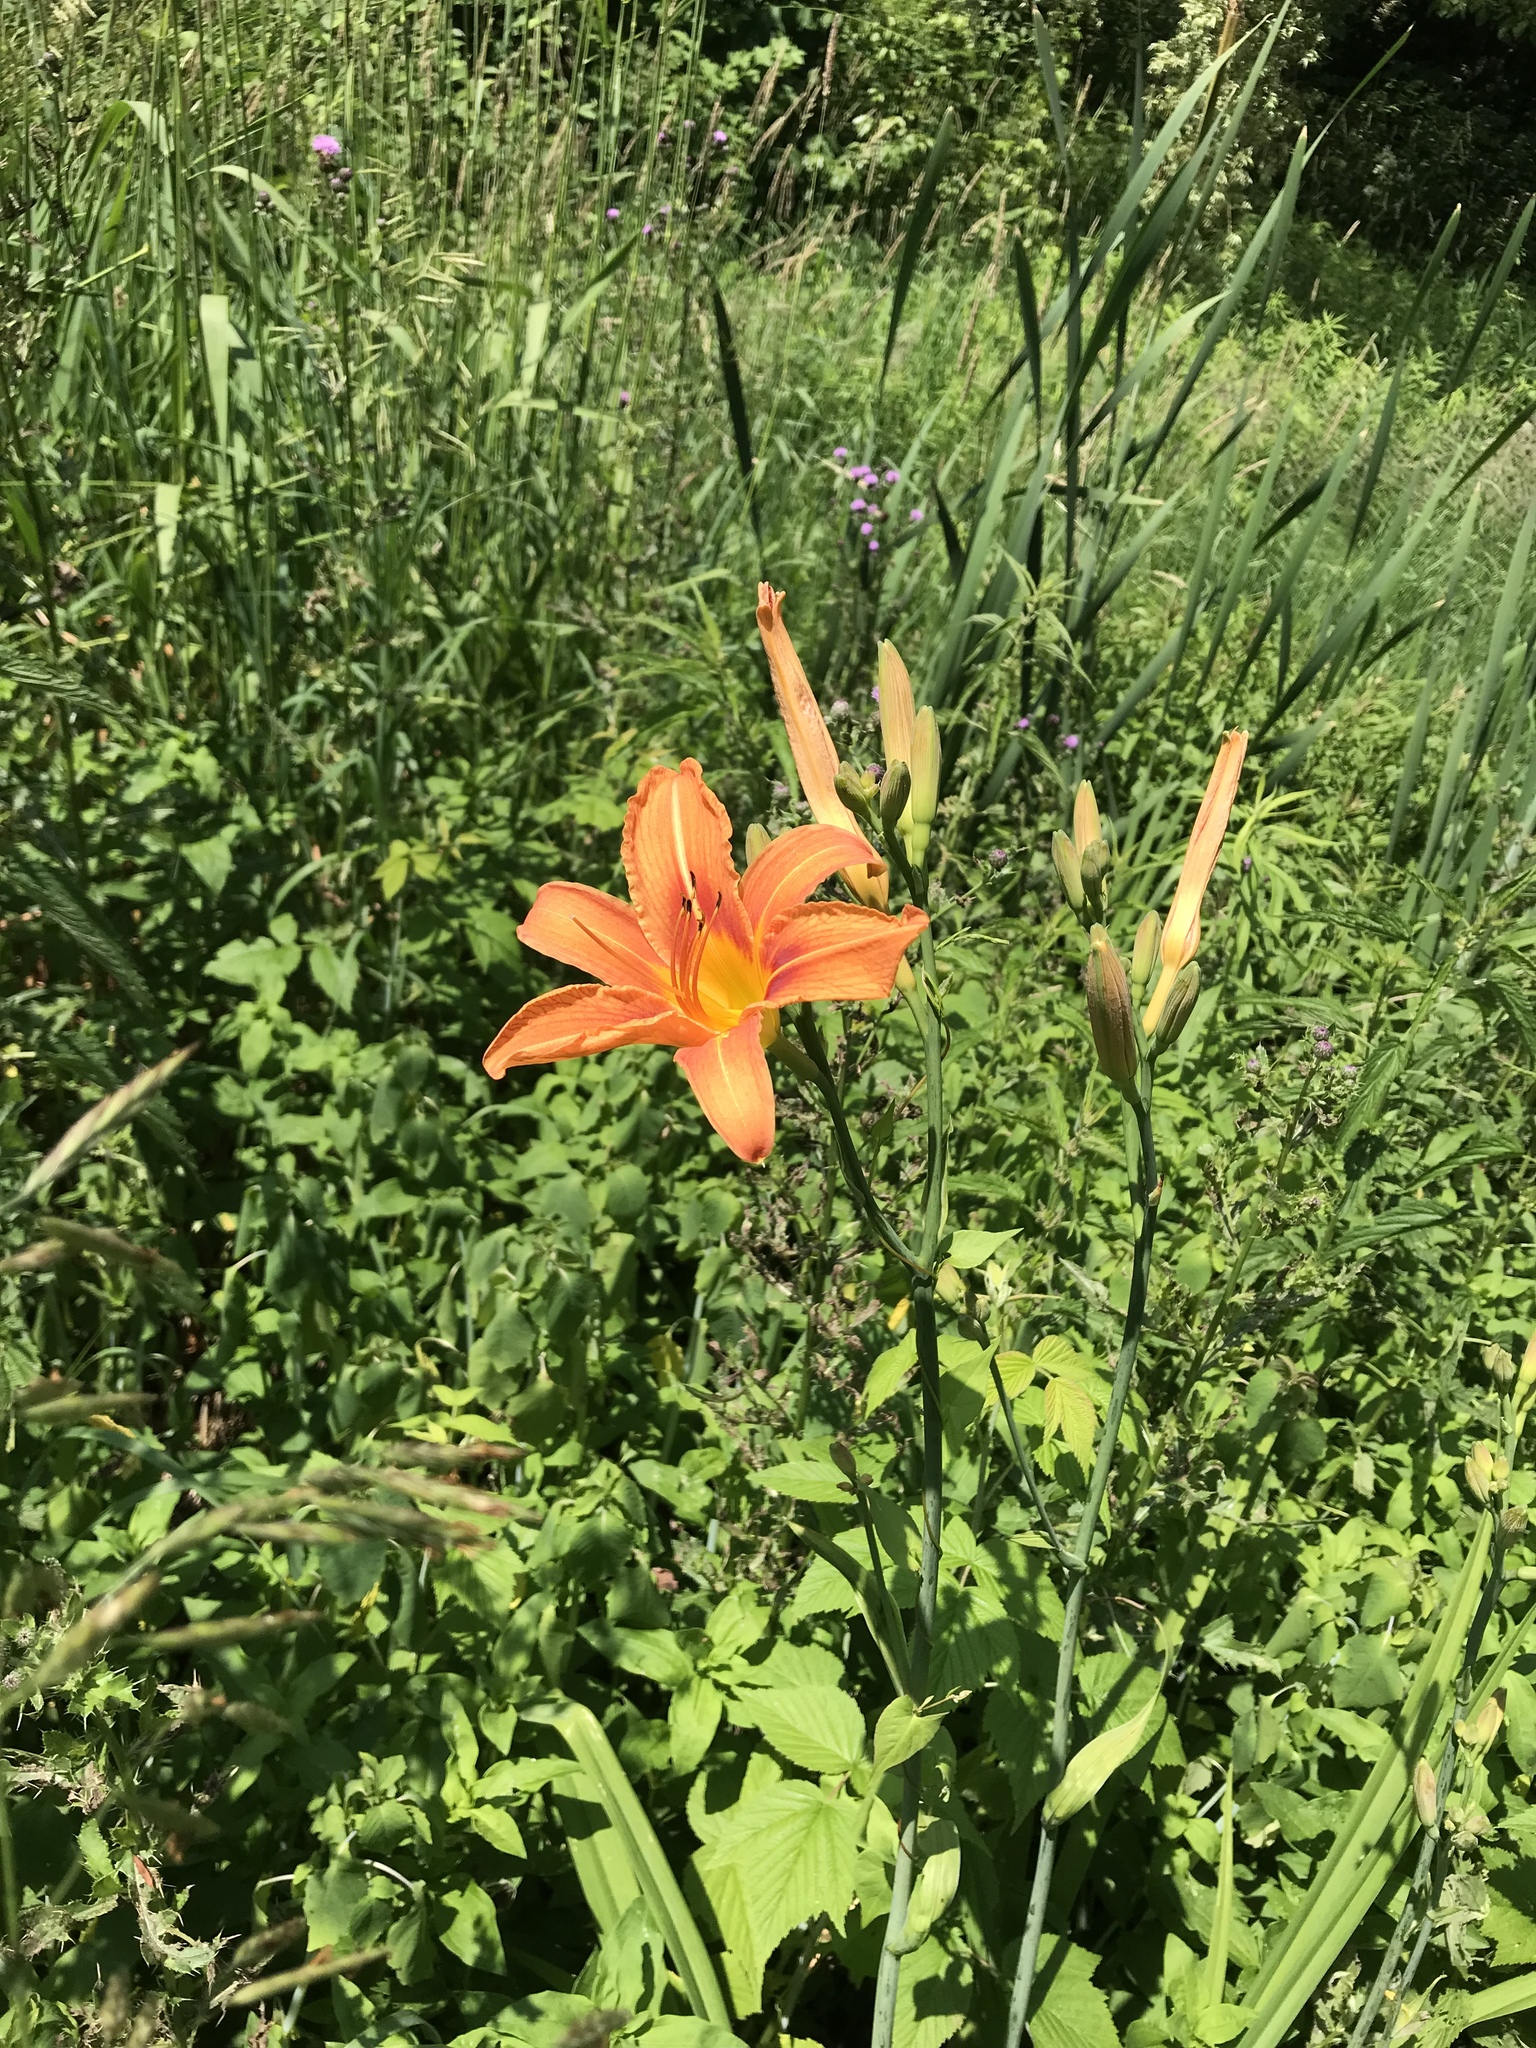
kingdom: Plantae
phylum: Tracheophyta
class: Liliopsida
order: Asparagales
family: Asphodelaceae
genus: Hemerocallis
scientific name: Hemerocallis fulva
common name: Orange day-lily
